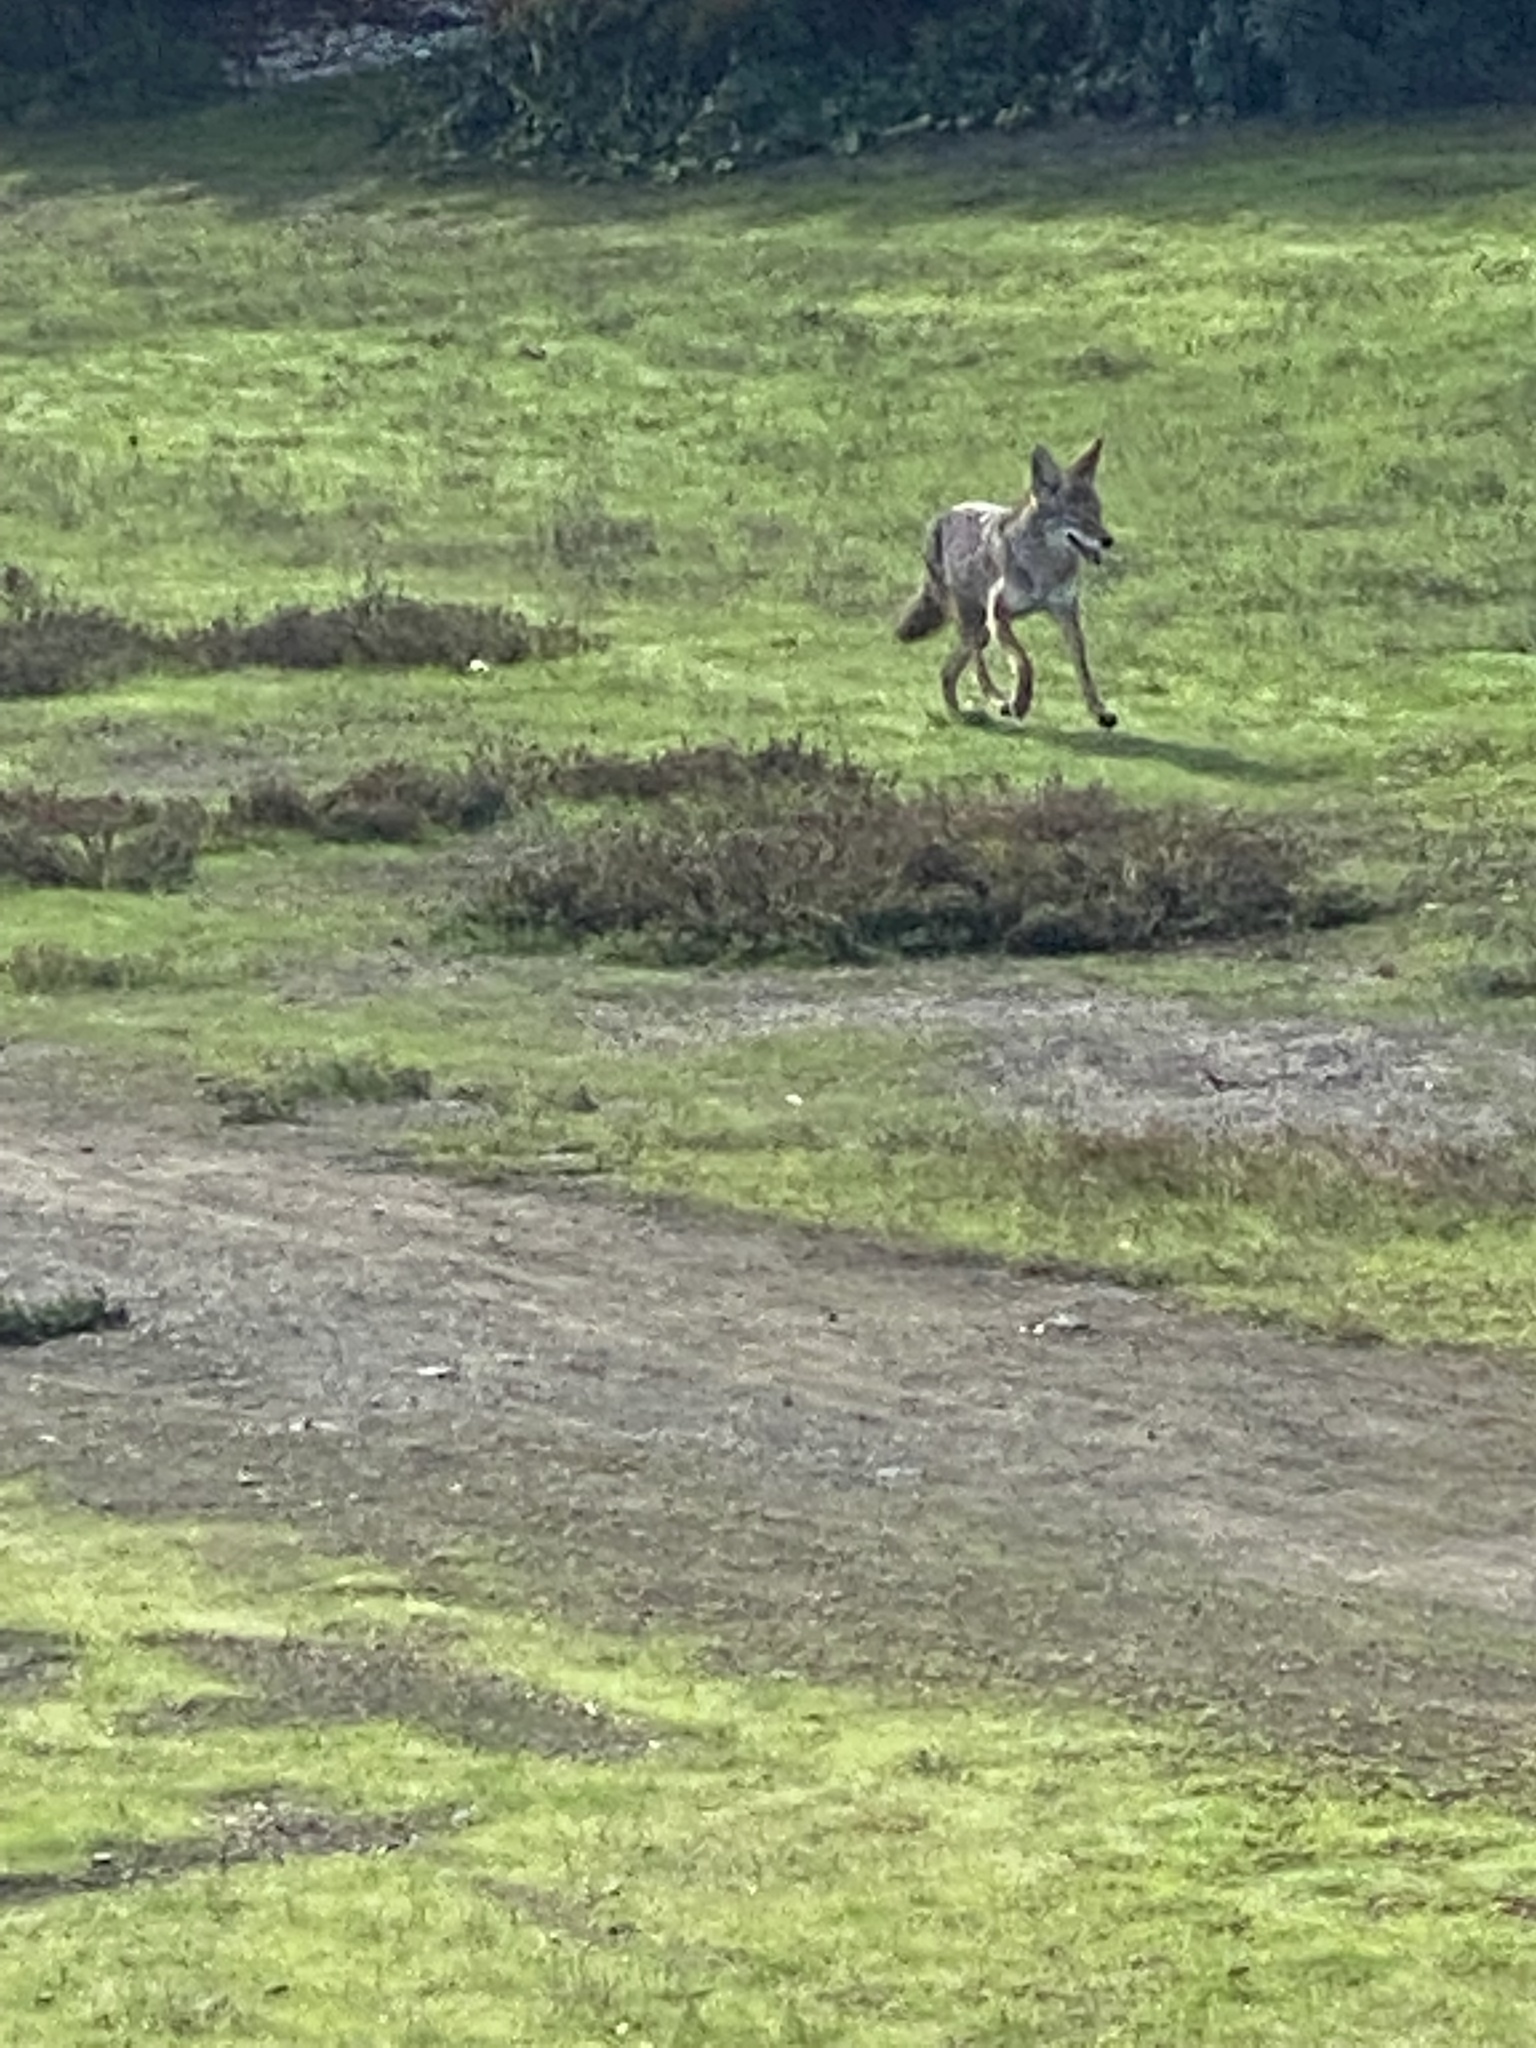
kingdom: Animalia
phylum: Chordata
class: Mammalia
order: Carnivora
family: Canidae
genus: Canis
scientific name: Canis latrans
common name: Coyote
